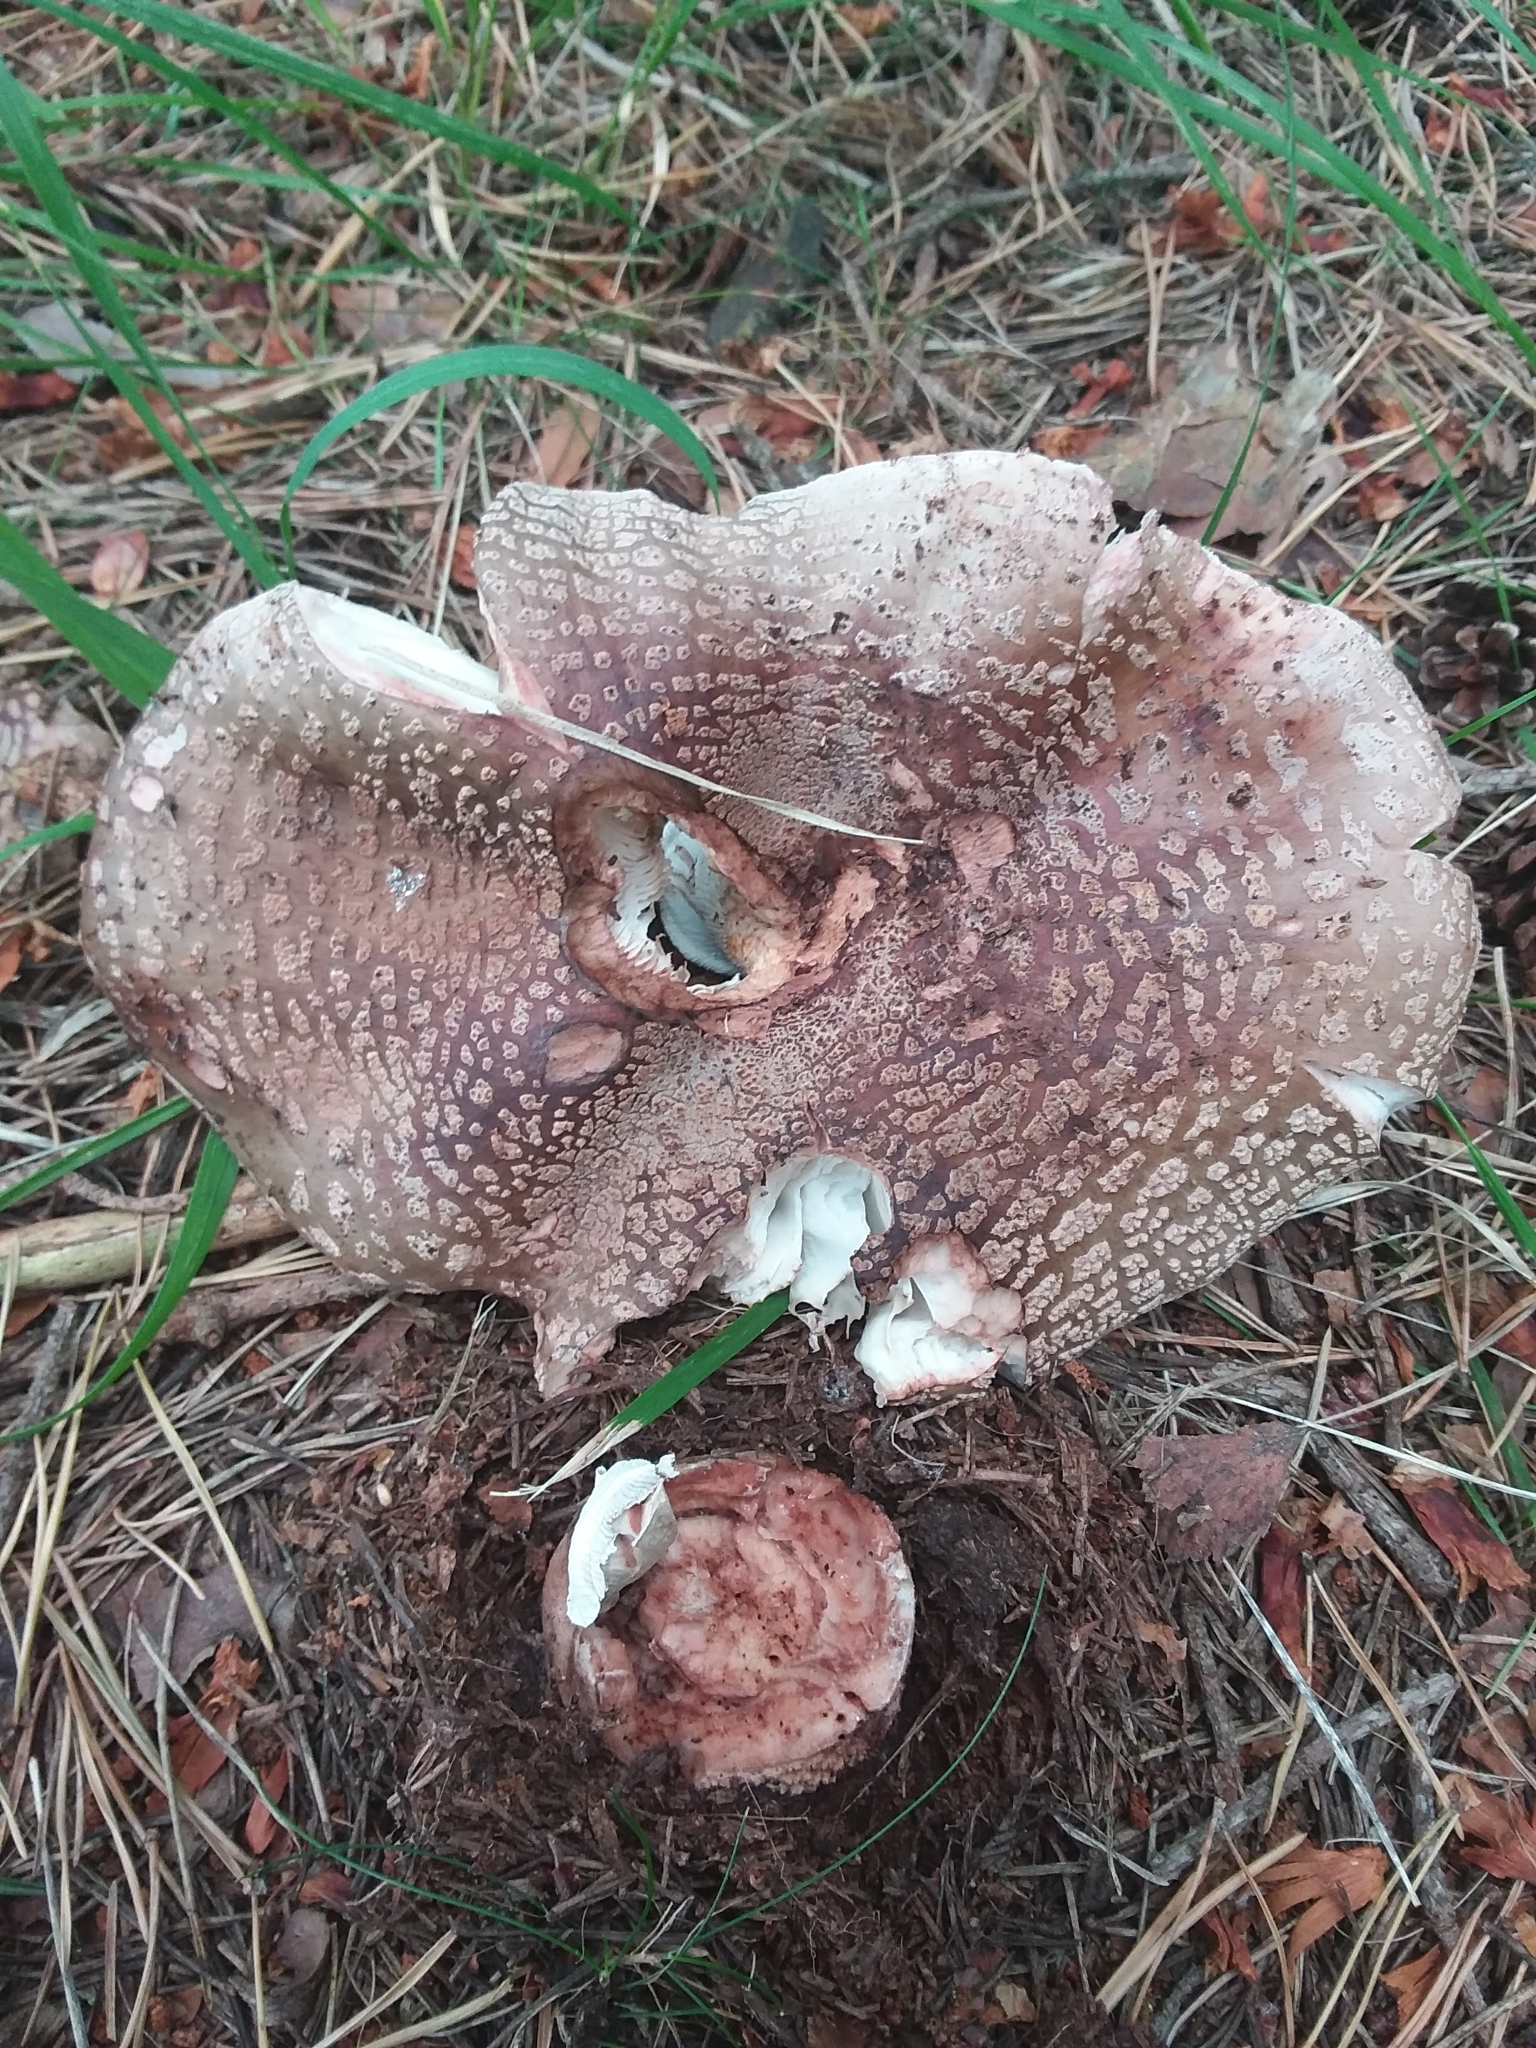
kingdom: Fungi
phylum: Basidiomycota
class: Agaricomycetes
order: Agaricales
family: Amanitaceae
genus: Amanita
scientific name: Amanita rubescens
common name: Blusher
